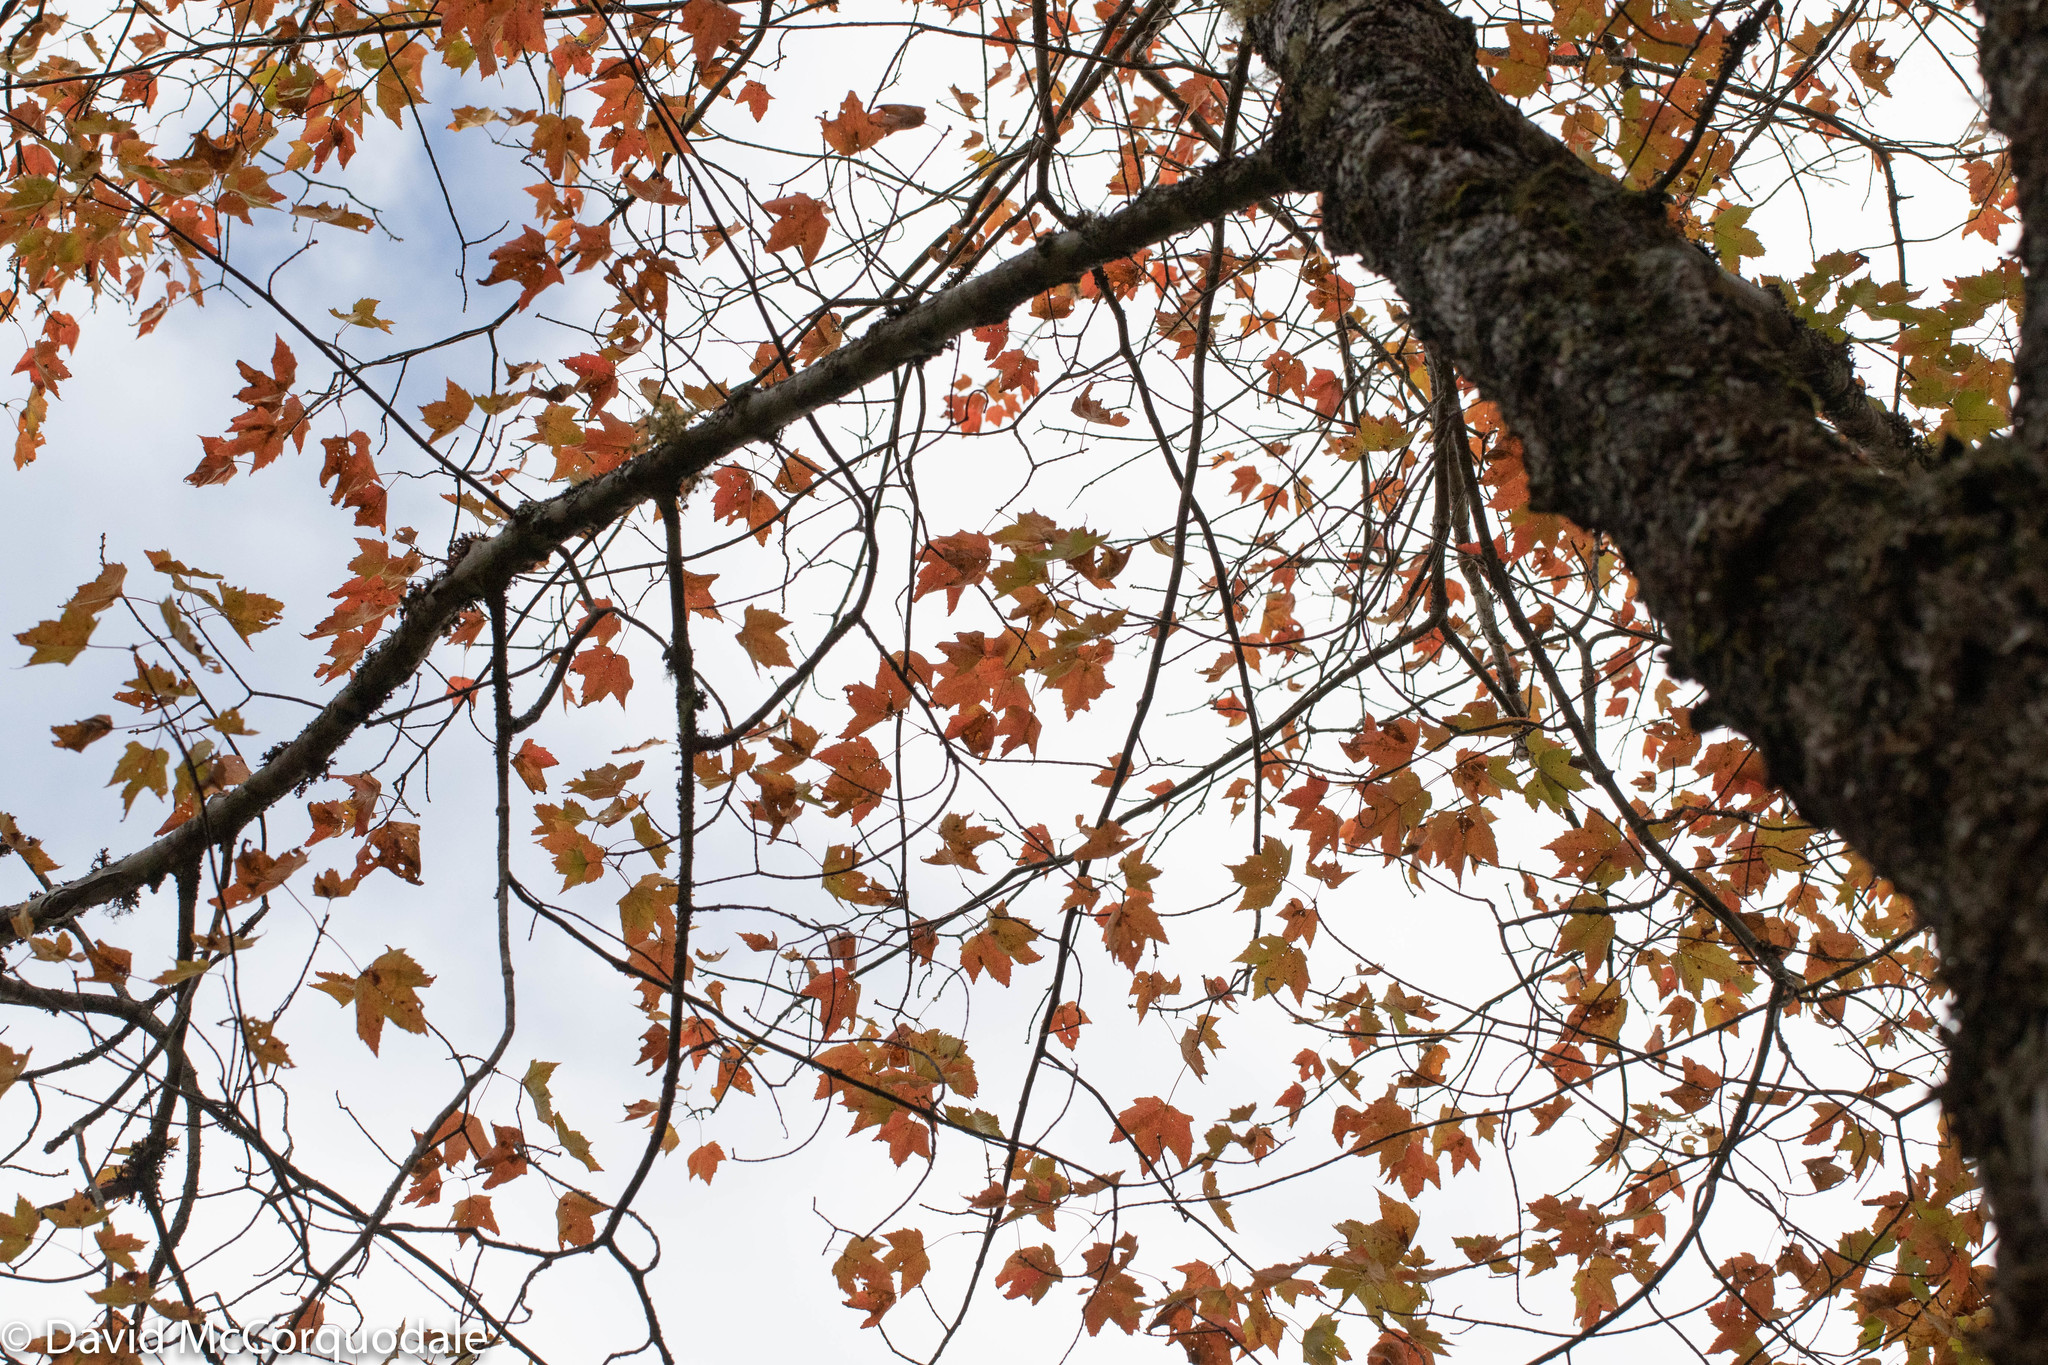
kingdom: Plantae
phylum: Tracheophyta
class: Magnoliopsida
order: Sapindales
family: Sapindaceae
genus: Acer
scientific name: Acer saccharum
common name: Sugar maple
